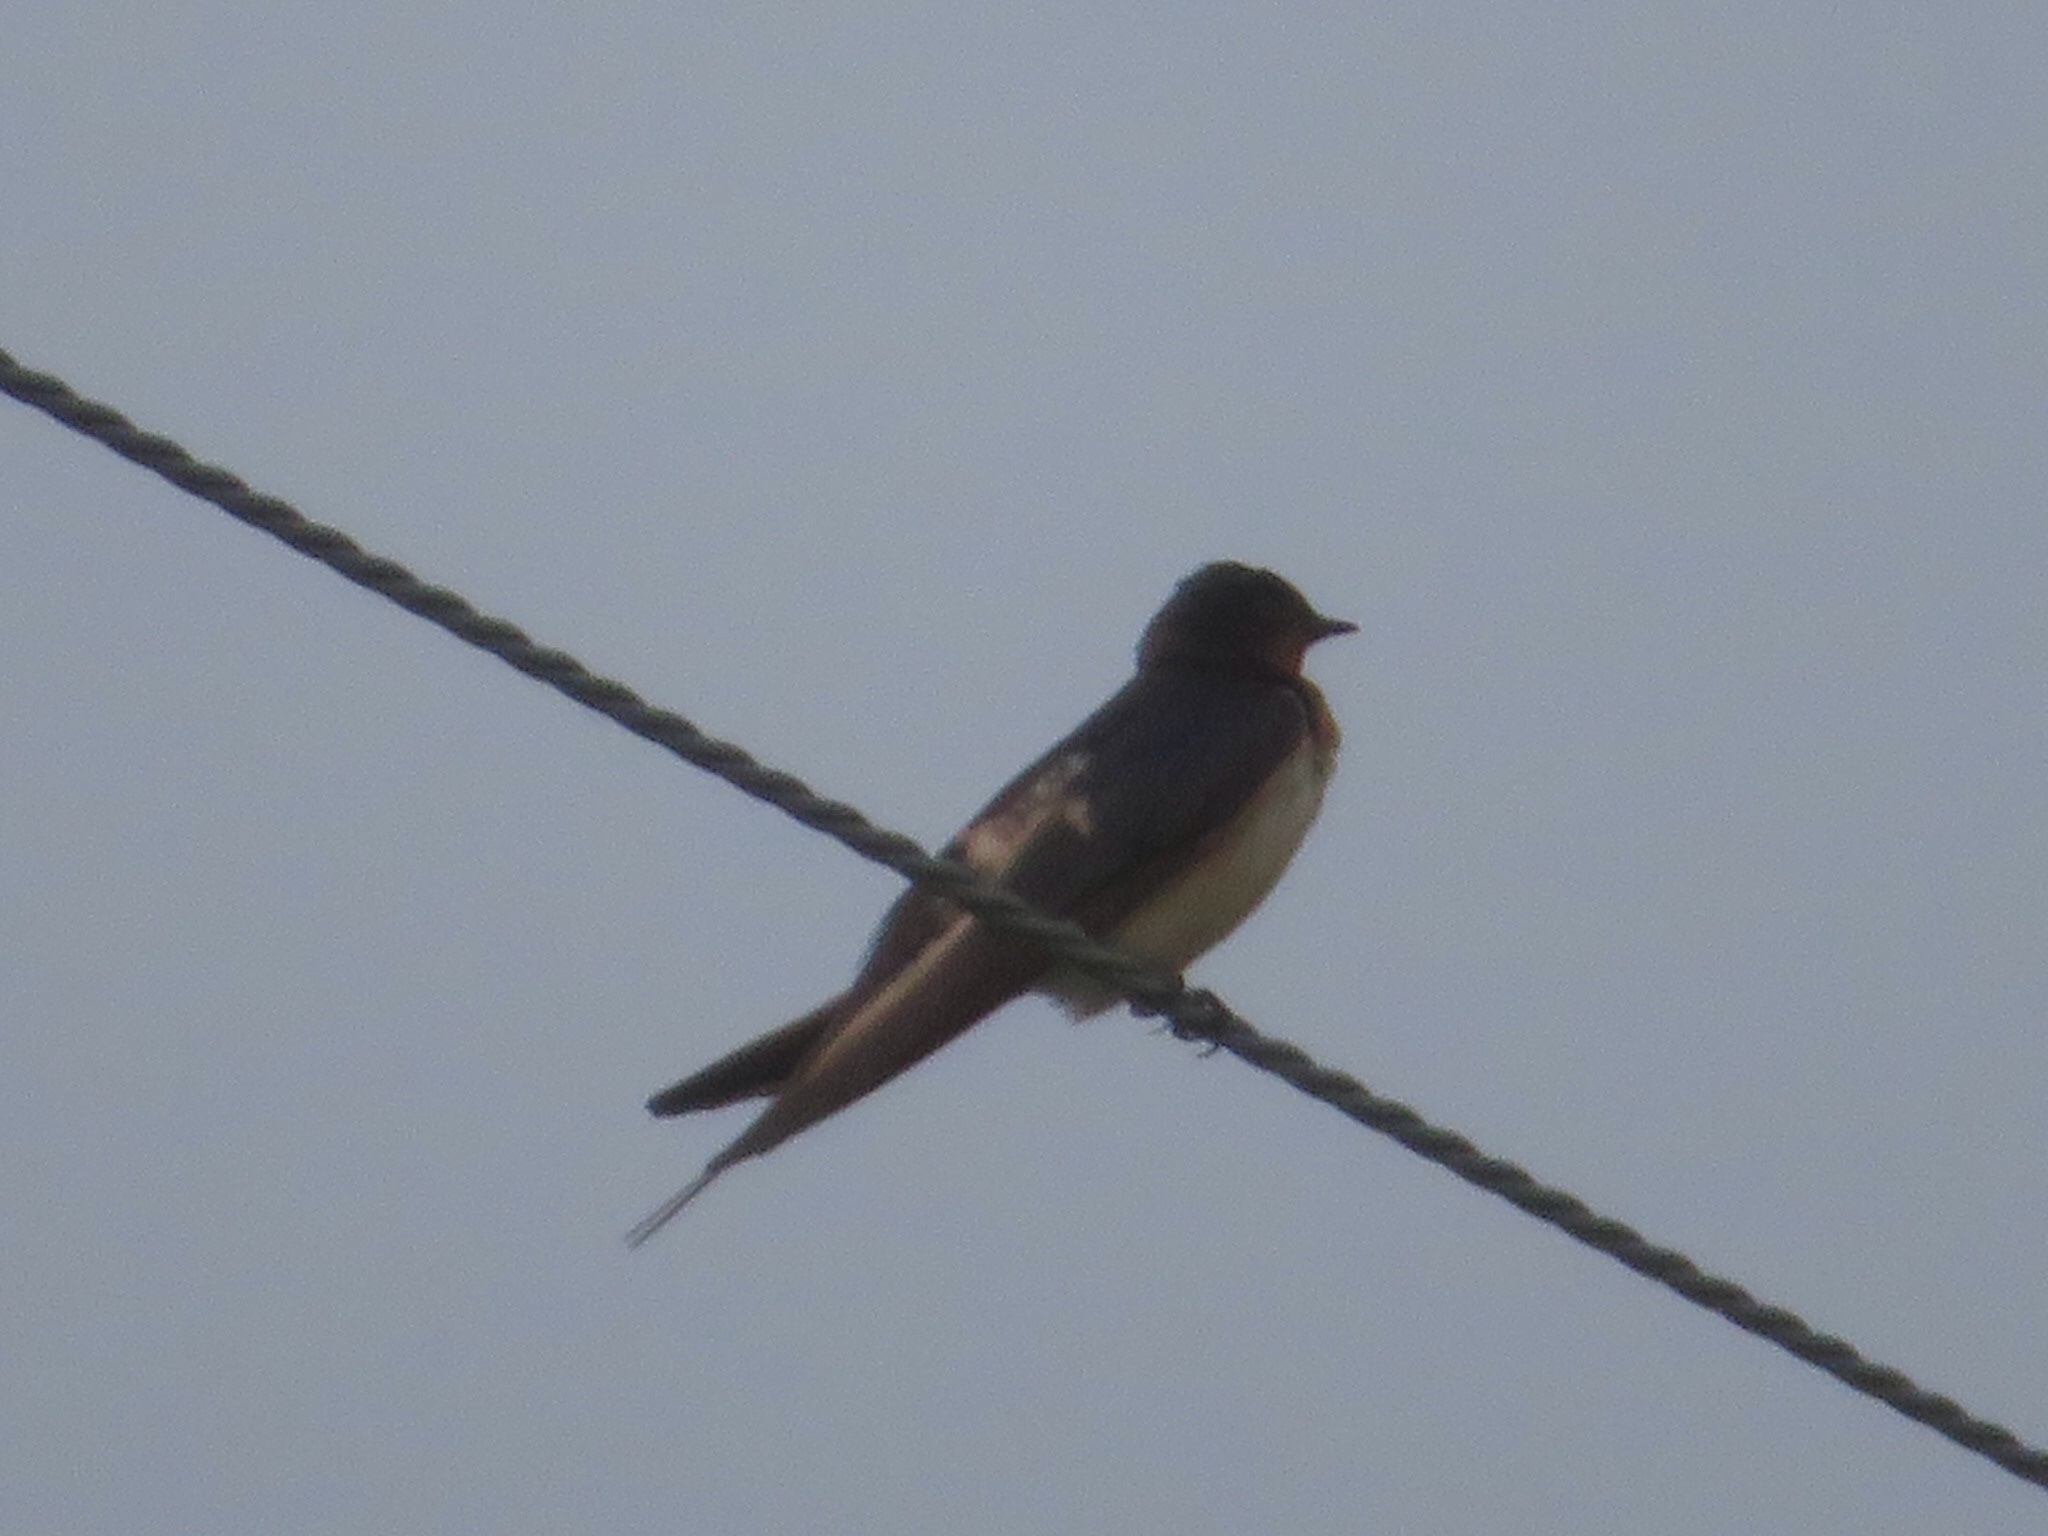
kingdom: Animalia
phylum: Chordata
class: Aves
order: Passeriformes
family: Hirundinidae
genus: Hirundo
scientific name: Hirundo rustica
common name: Barn swallow
